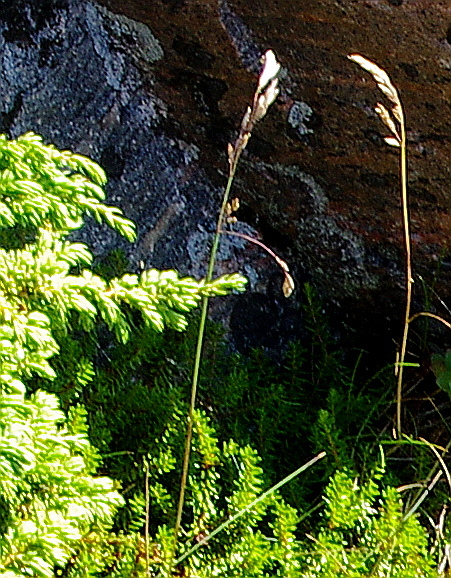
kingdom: Plantae
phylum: Tracheophyta
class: Liliopsida
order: Poales
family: Poaceae
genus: Dactylis
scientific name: Dactylis glomerata
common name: Orchardgrass
